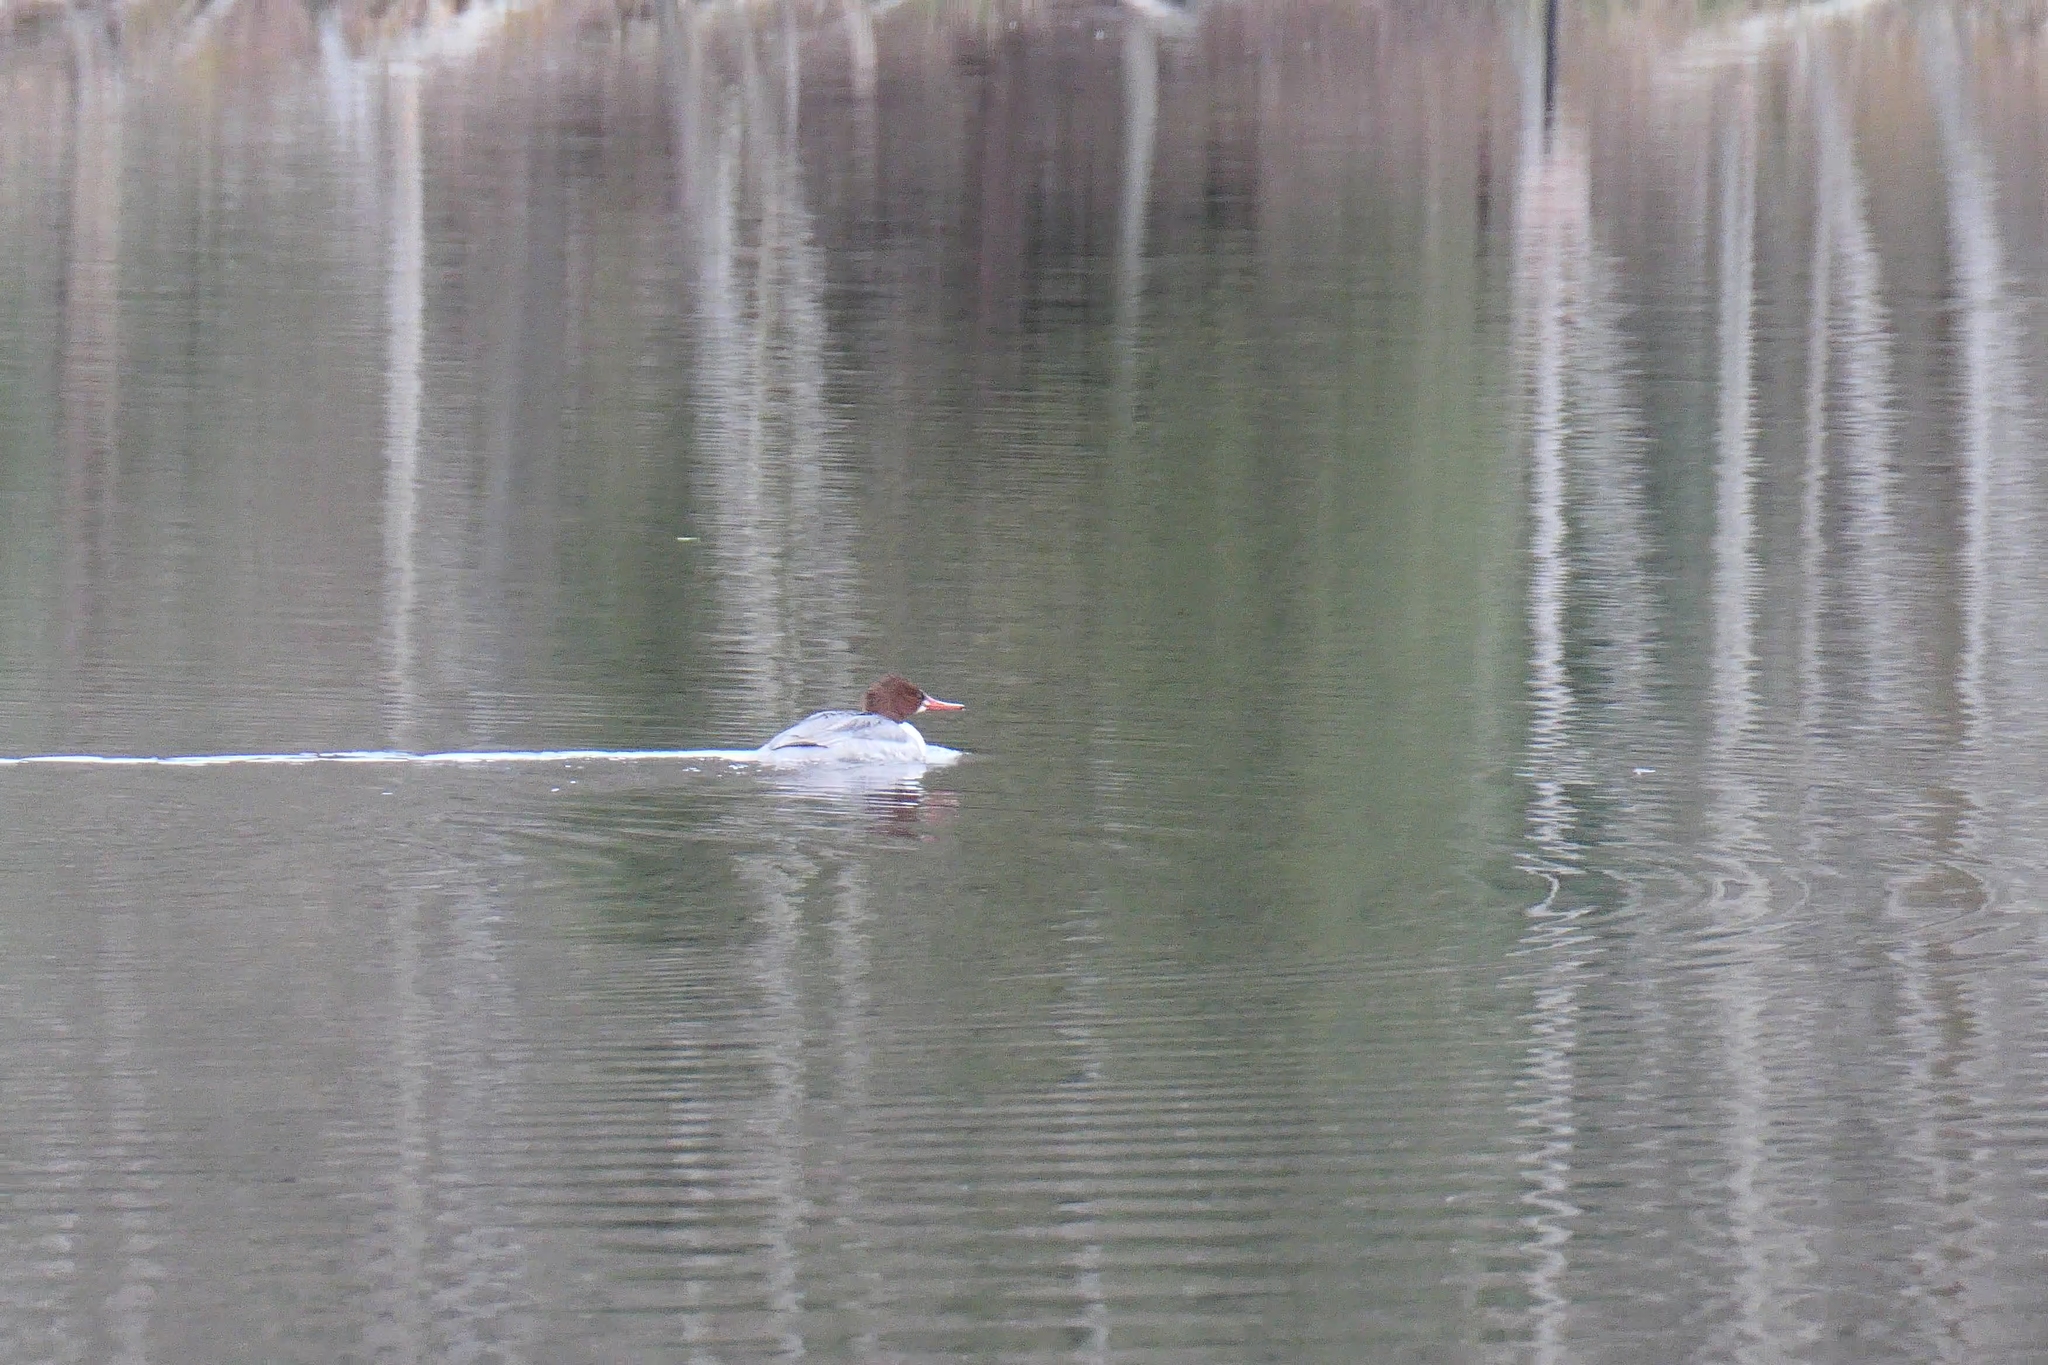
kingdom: Animalia
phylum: Chordata
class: Aves
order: Anseriformes
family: Anatidae
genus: Mergus
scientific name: Mergus merganser
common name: Common merganser
